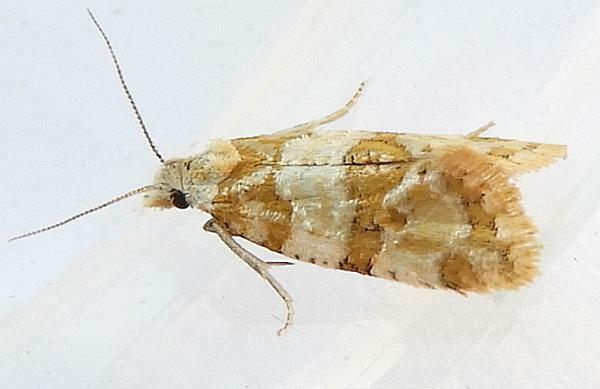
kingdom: Animalia
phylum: Arthropoda
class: Insecta
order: Lepidoptera
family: Tortricidae
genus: Aethes
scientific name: Aethes argentilimitana
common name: Silver-bordered aethes
